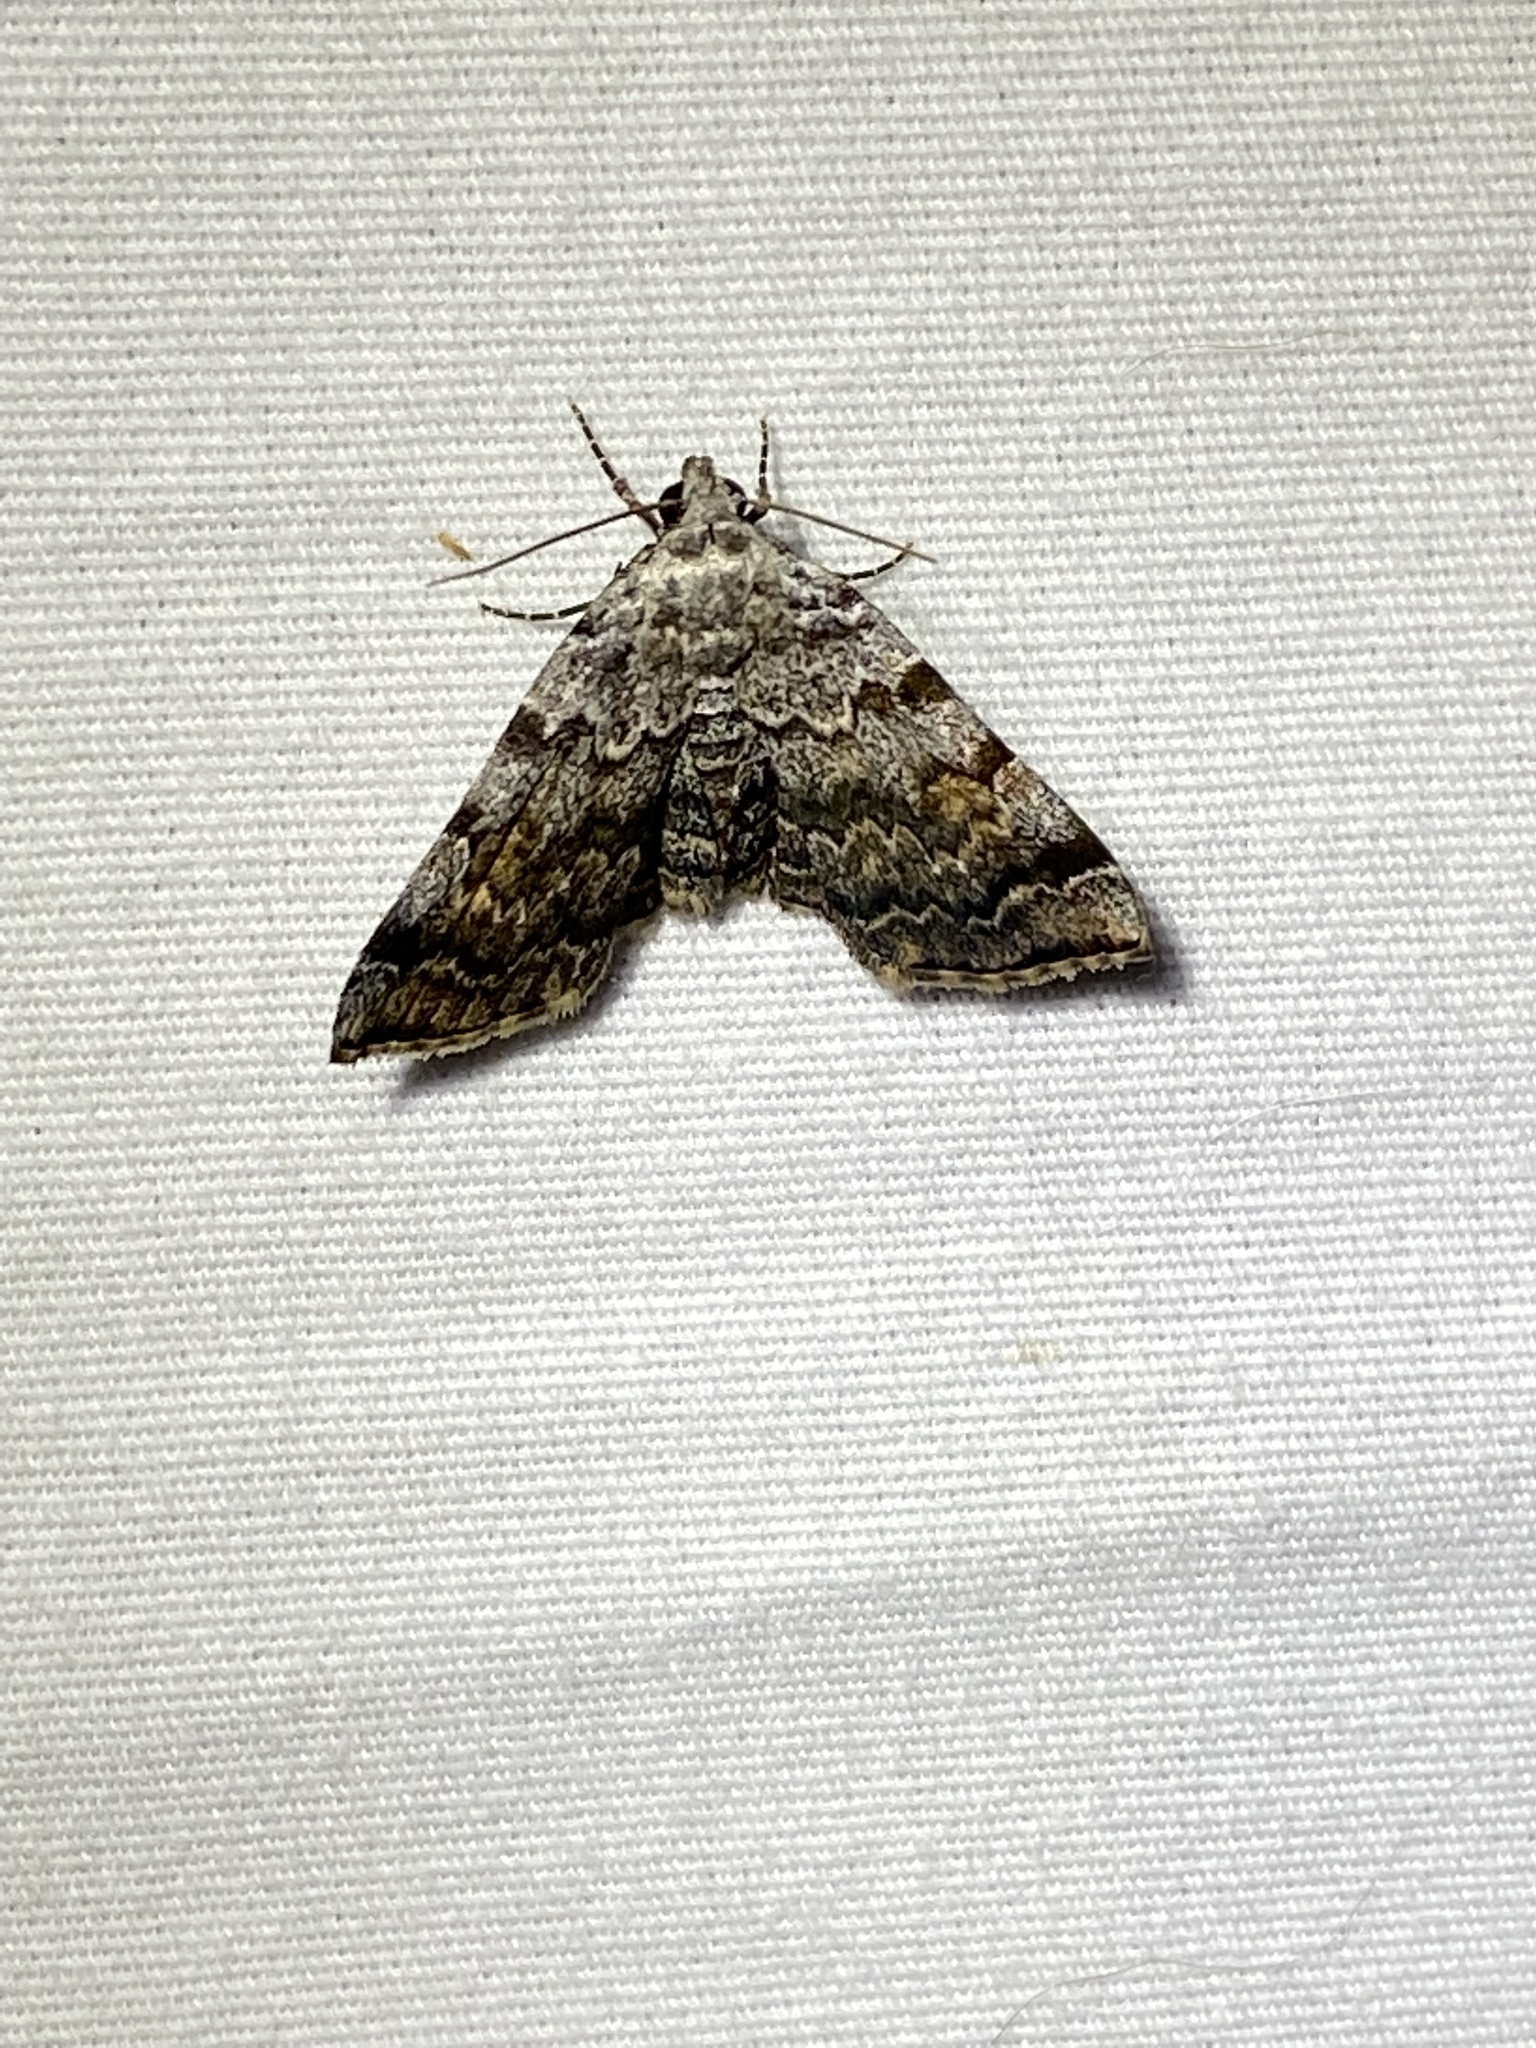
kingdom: Animalia
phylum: Arthropoda
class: Insecta
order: Lepidoptera
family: Erebidae
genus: Idia
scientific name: Idia americalis
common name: American idia moth
